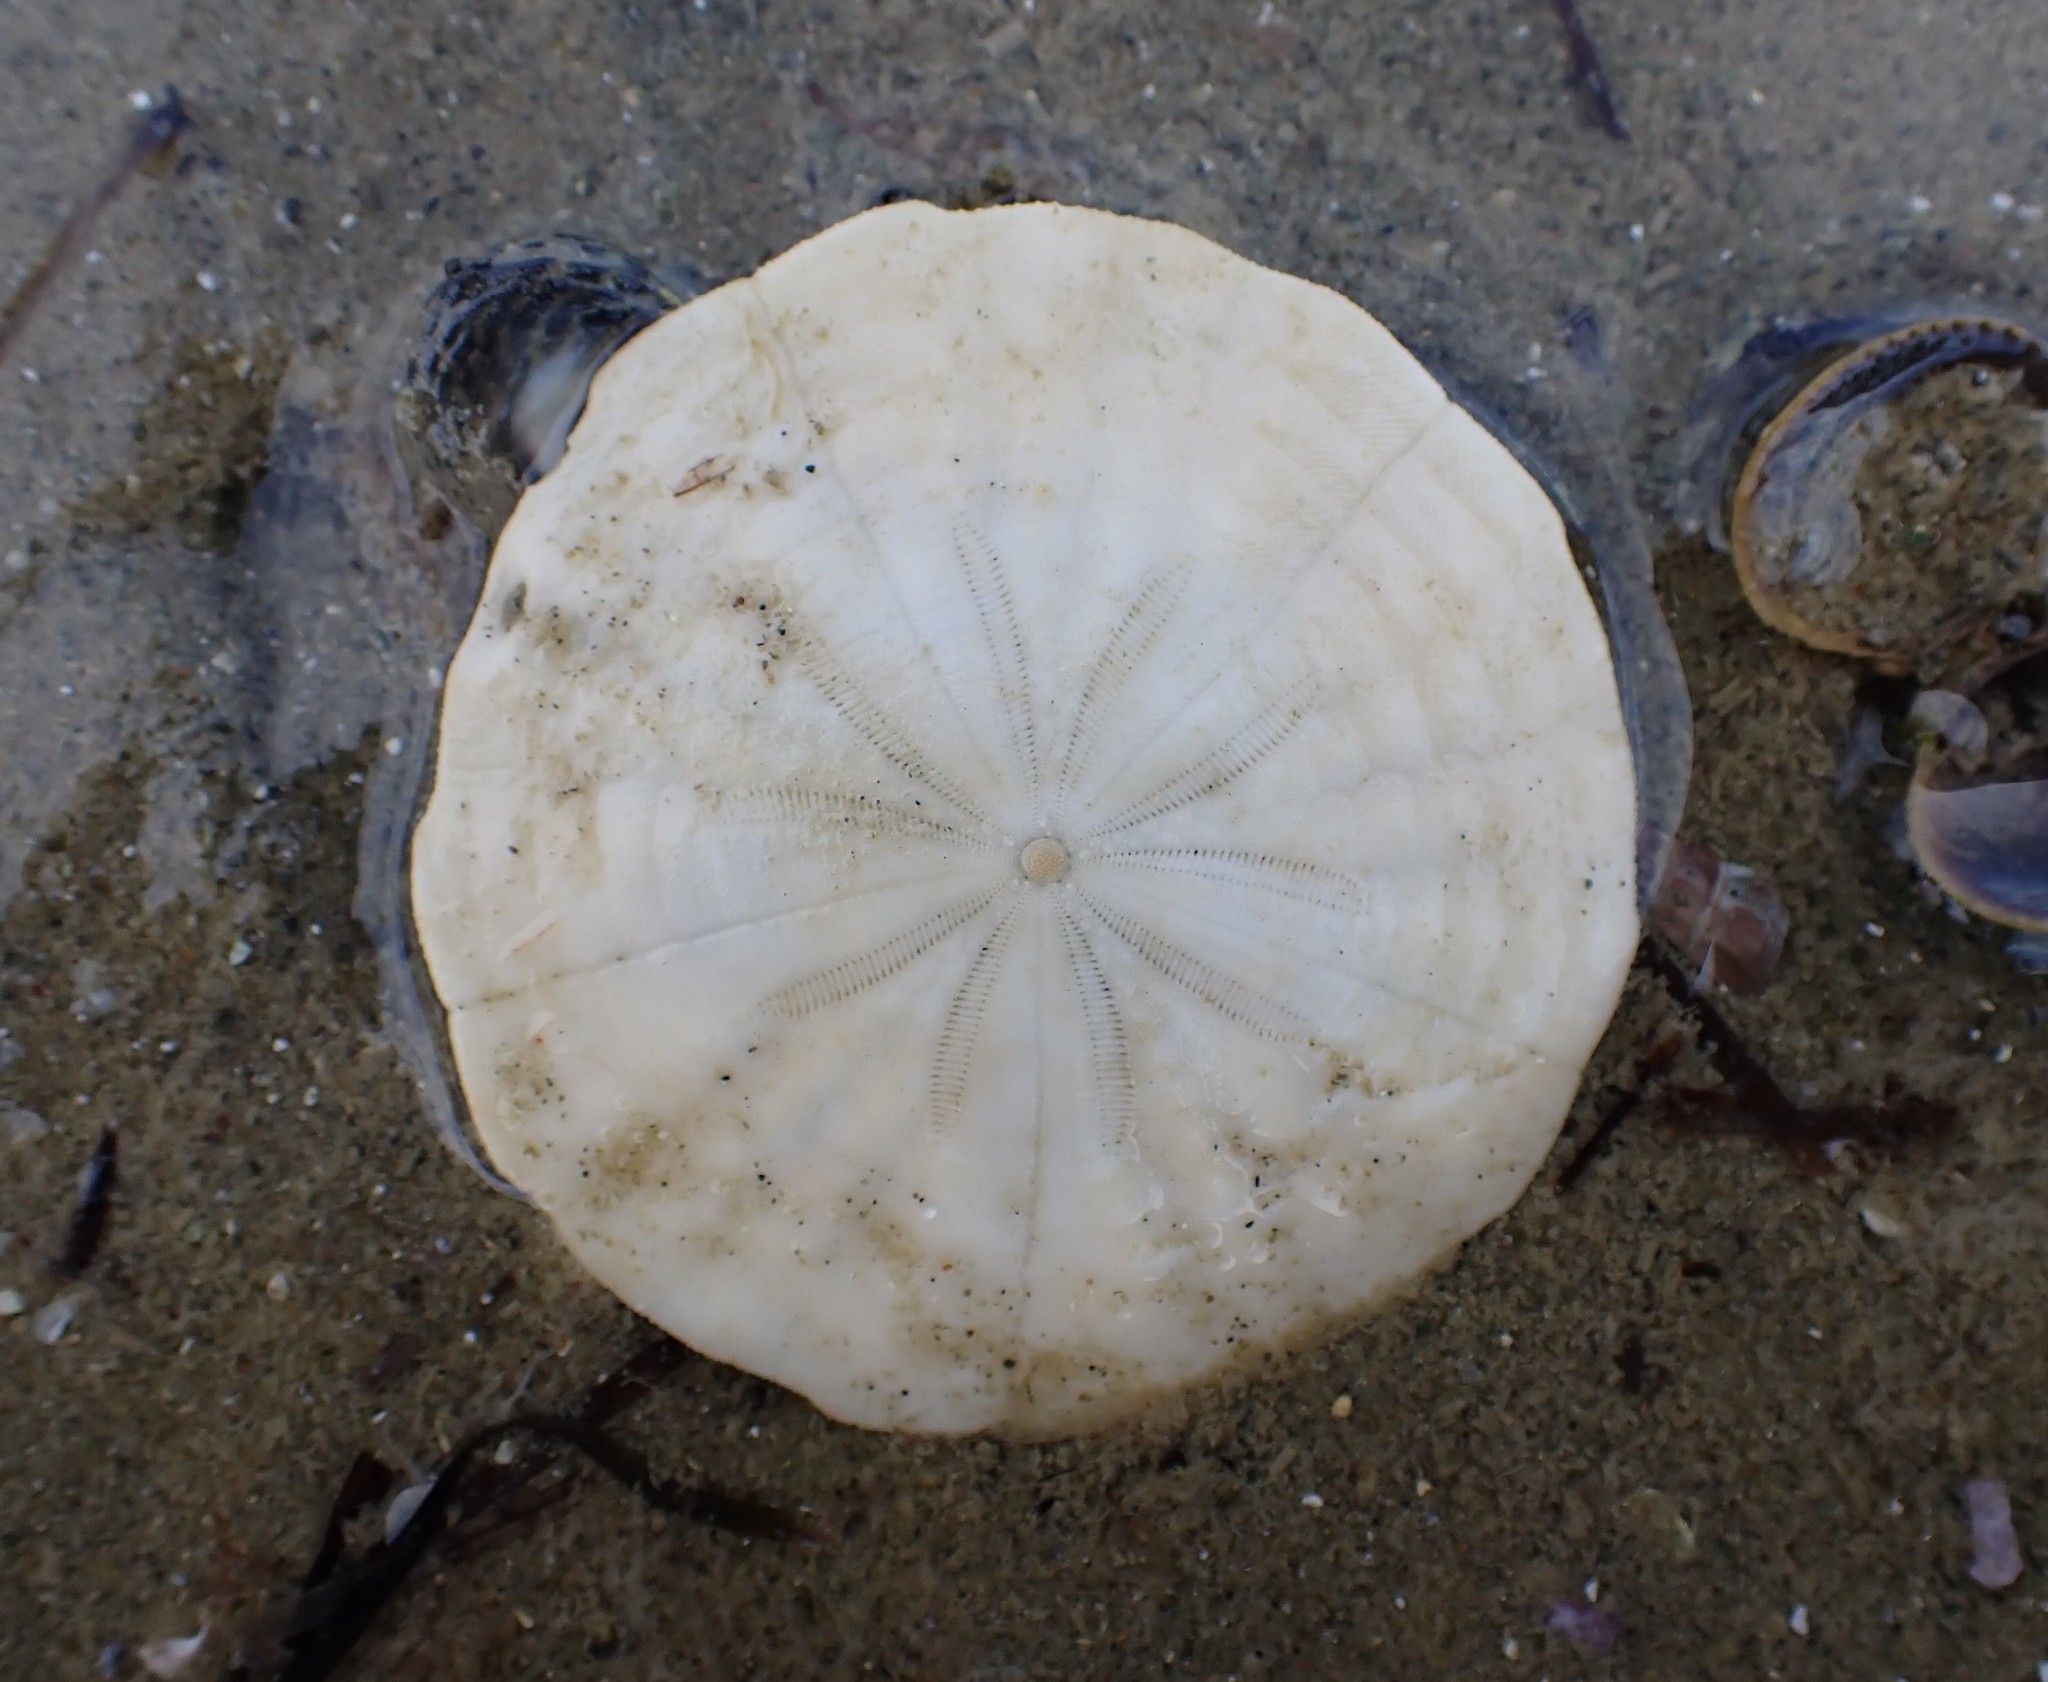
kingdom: Animalia
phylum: Echinodermata
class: Echinoidea
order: Clypeasteroida
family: Clypeasteridae
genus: Fellaster
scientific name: Fellaster zelandiae
